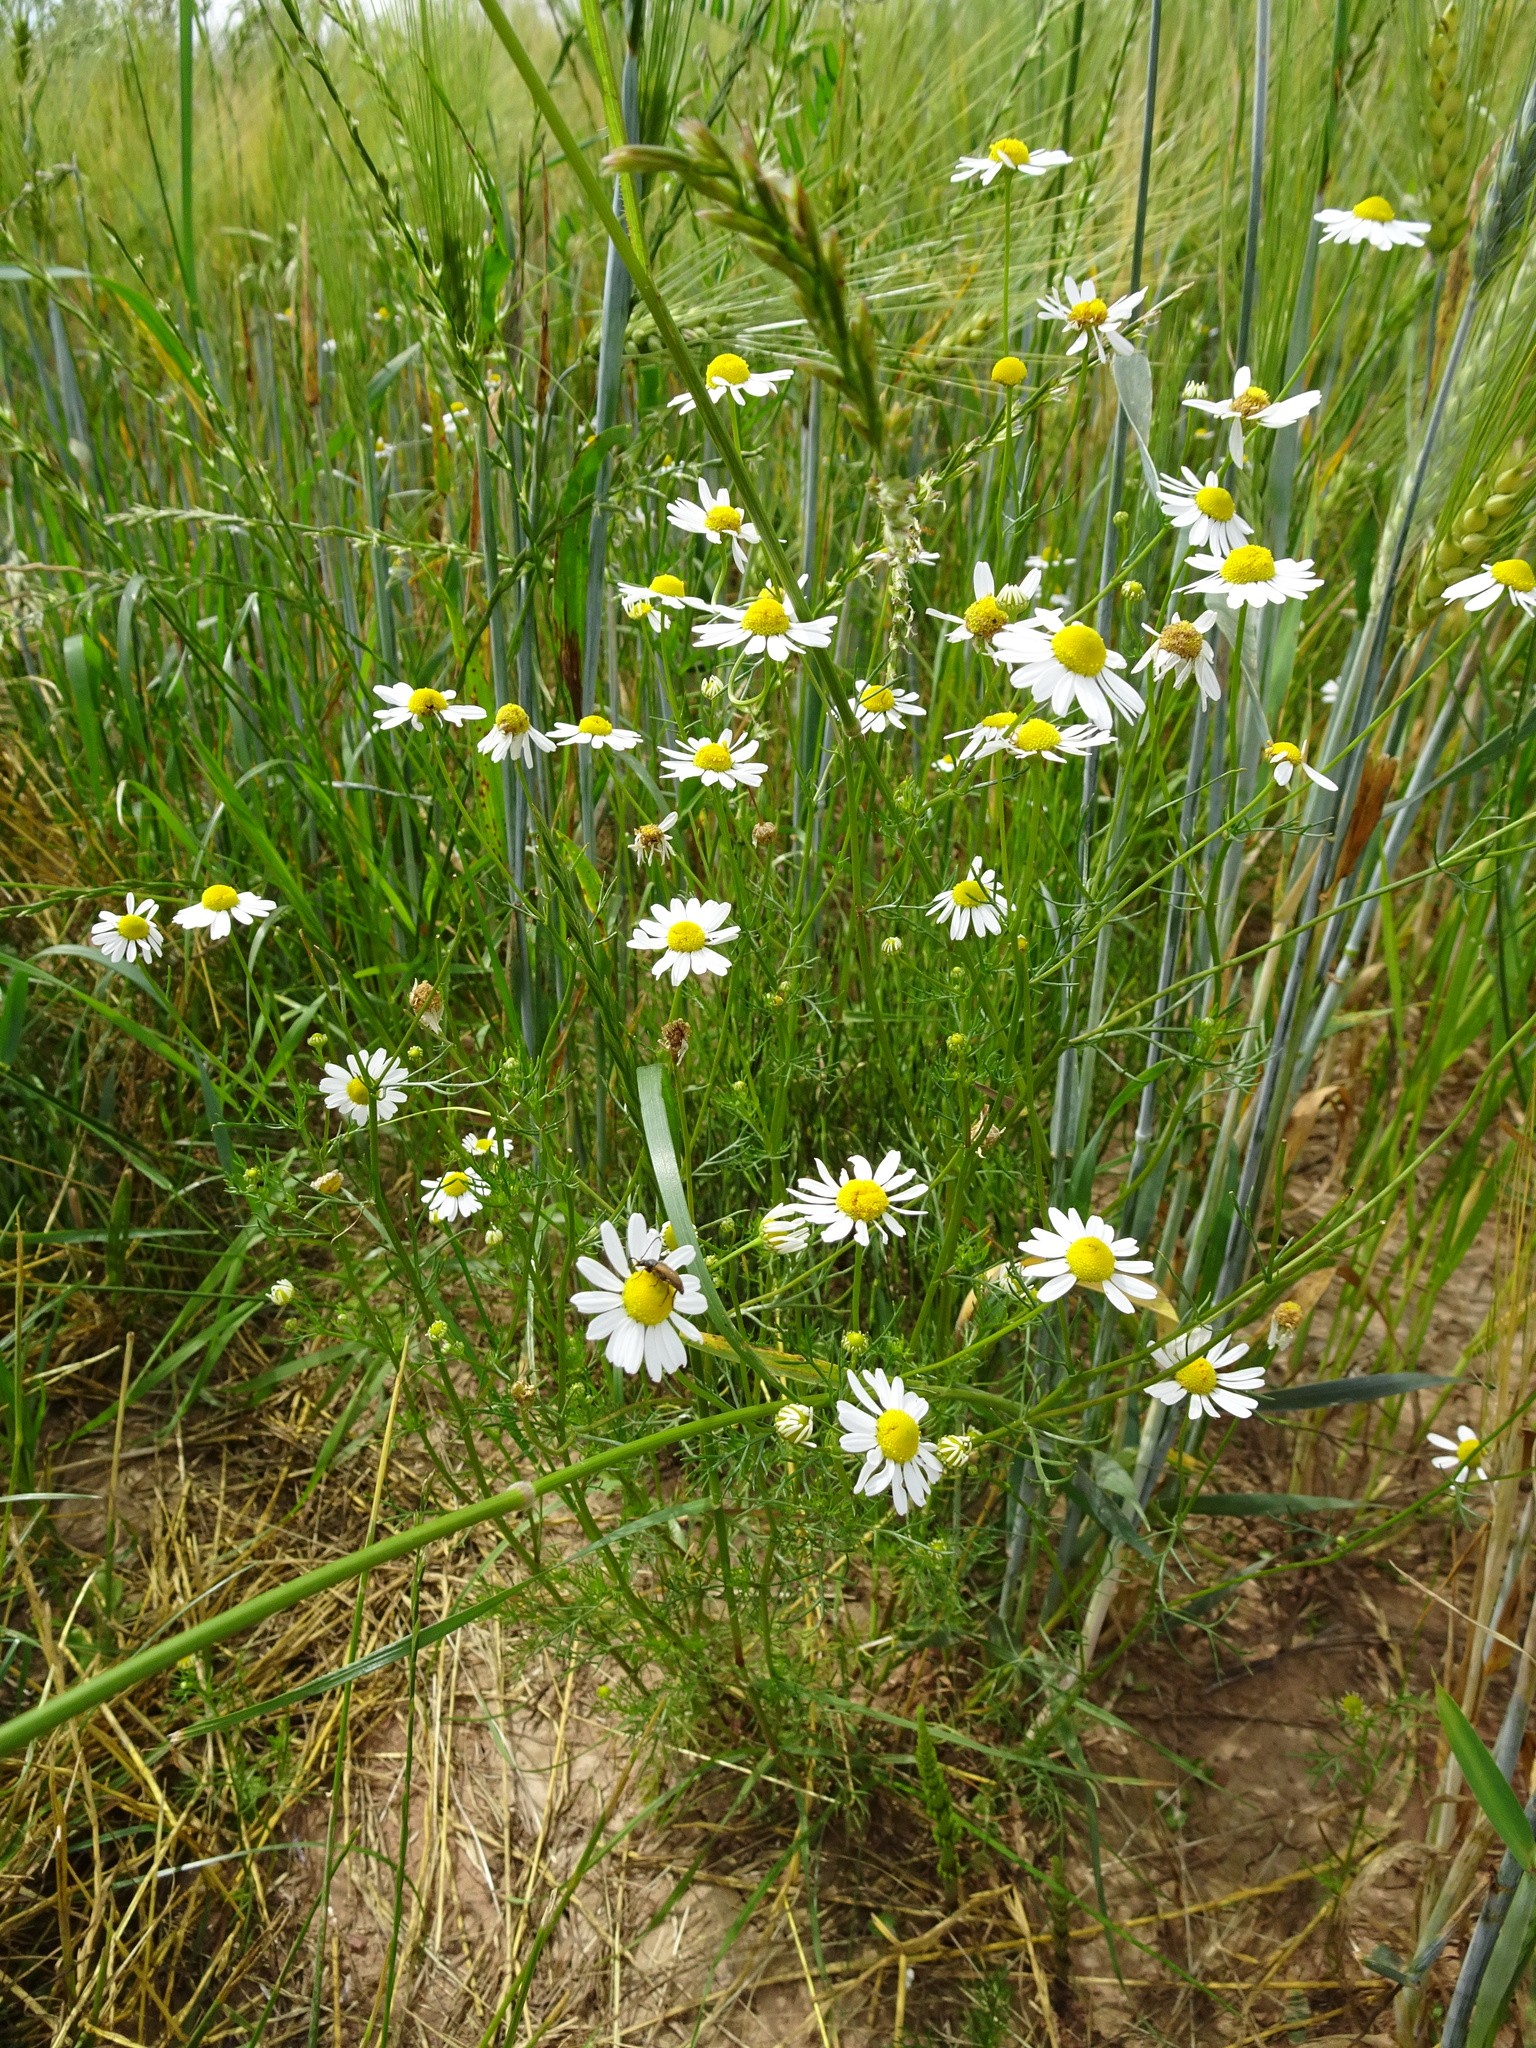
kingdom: Plantae
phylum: Tracheophyta
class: Magnoliopsida
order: Asterales
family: Asteraceae
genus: Tripleurospermum
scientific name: Tripleurospermum inodorum
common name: Scentless mayweed
